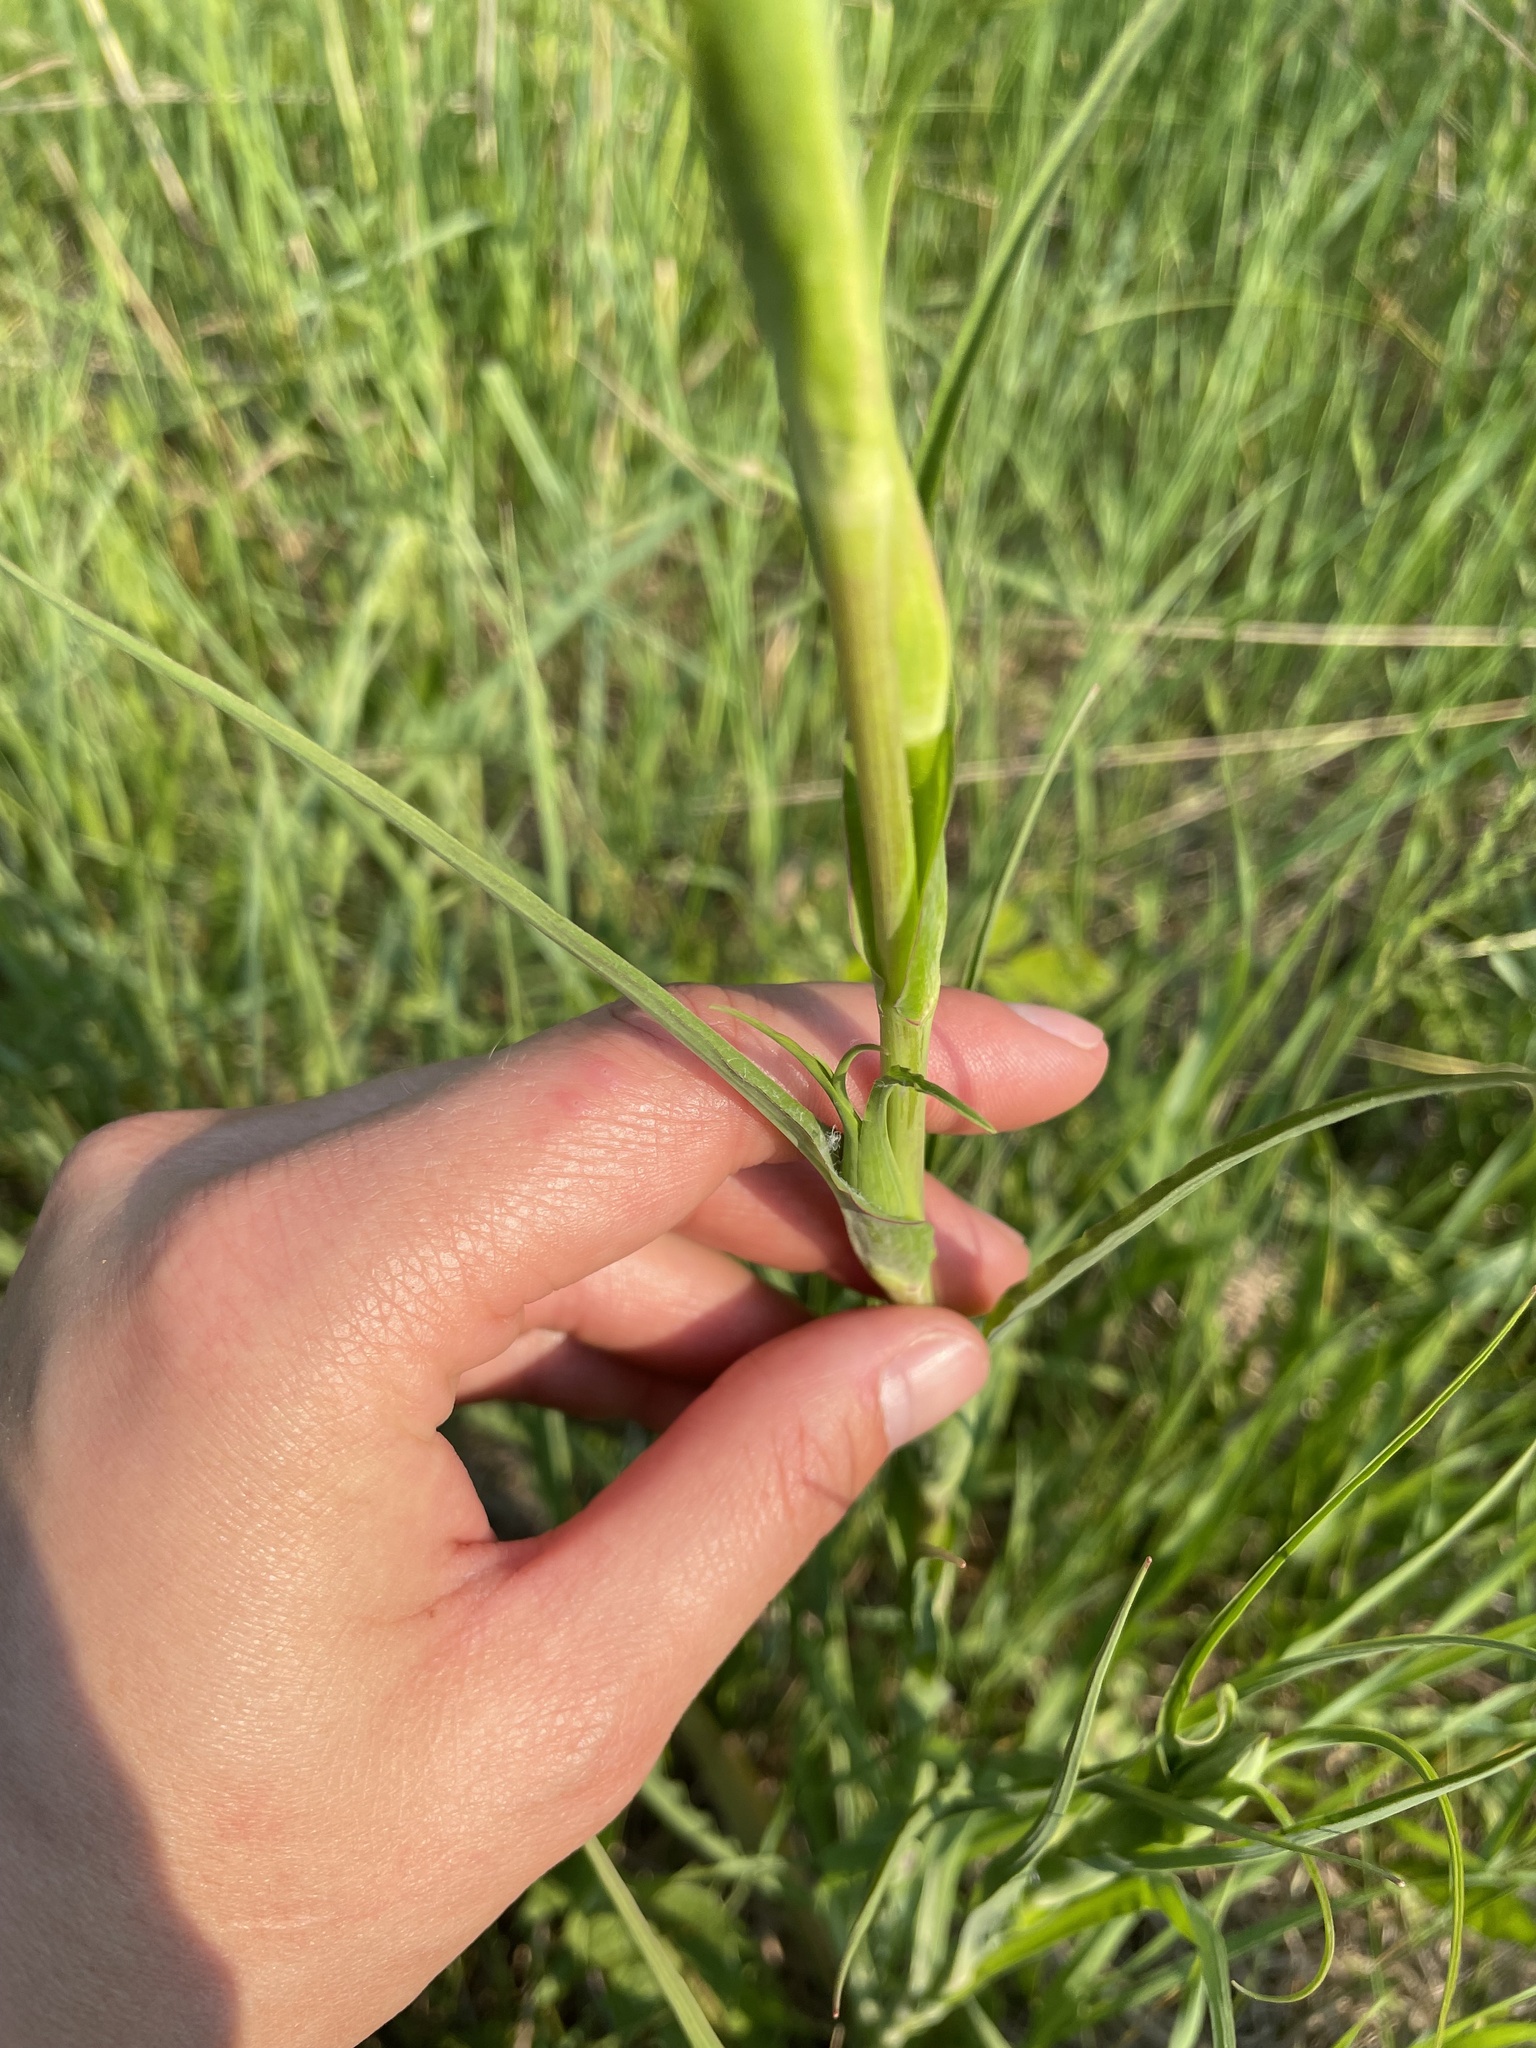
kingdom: Plantae
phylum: Tracheophyta
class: Magnoliopsida
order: Asterales
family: Asteraceae
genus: Tragopogon
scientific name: Tragopogon pratensis
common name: Goat's-beard
